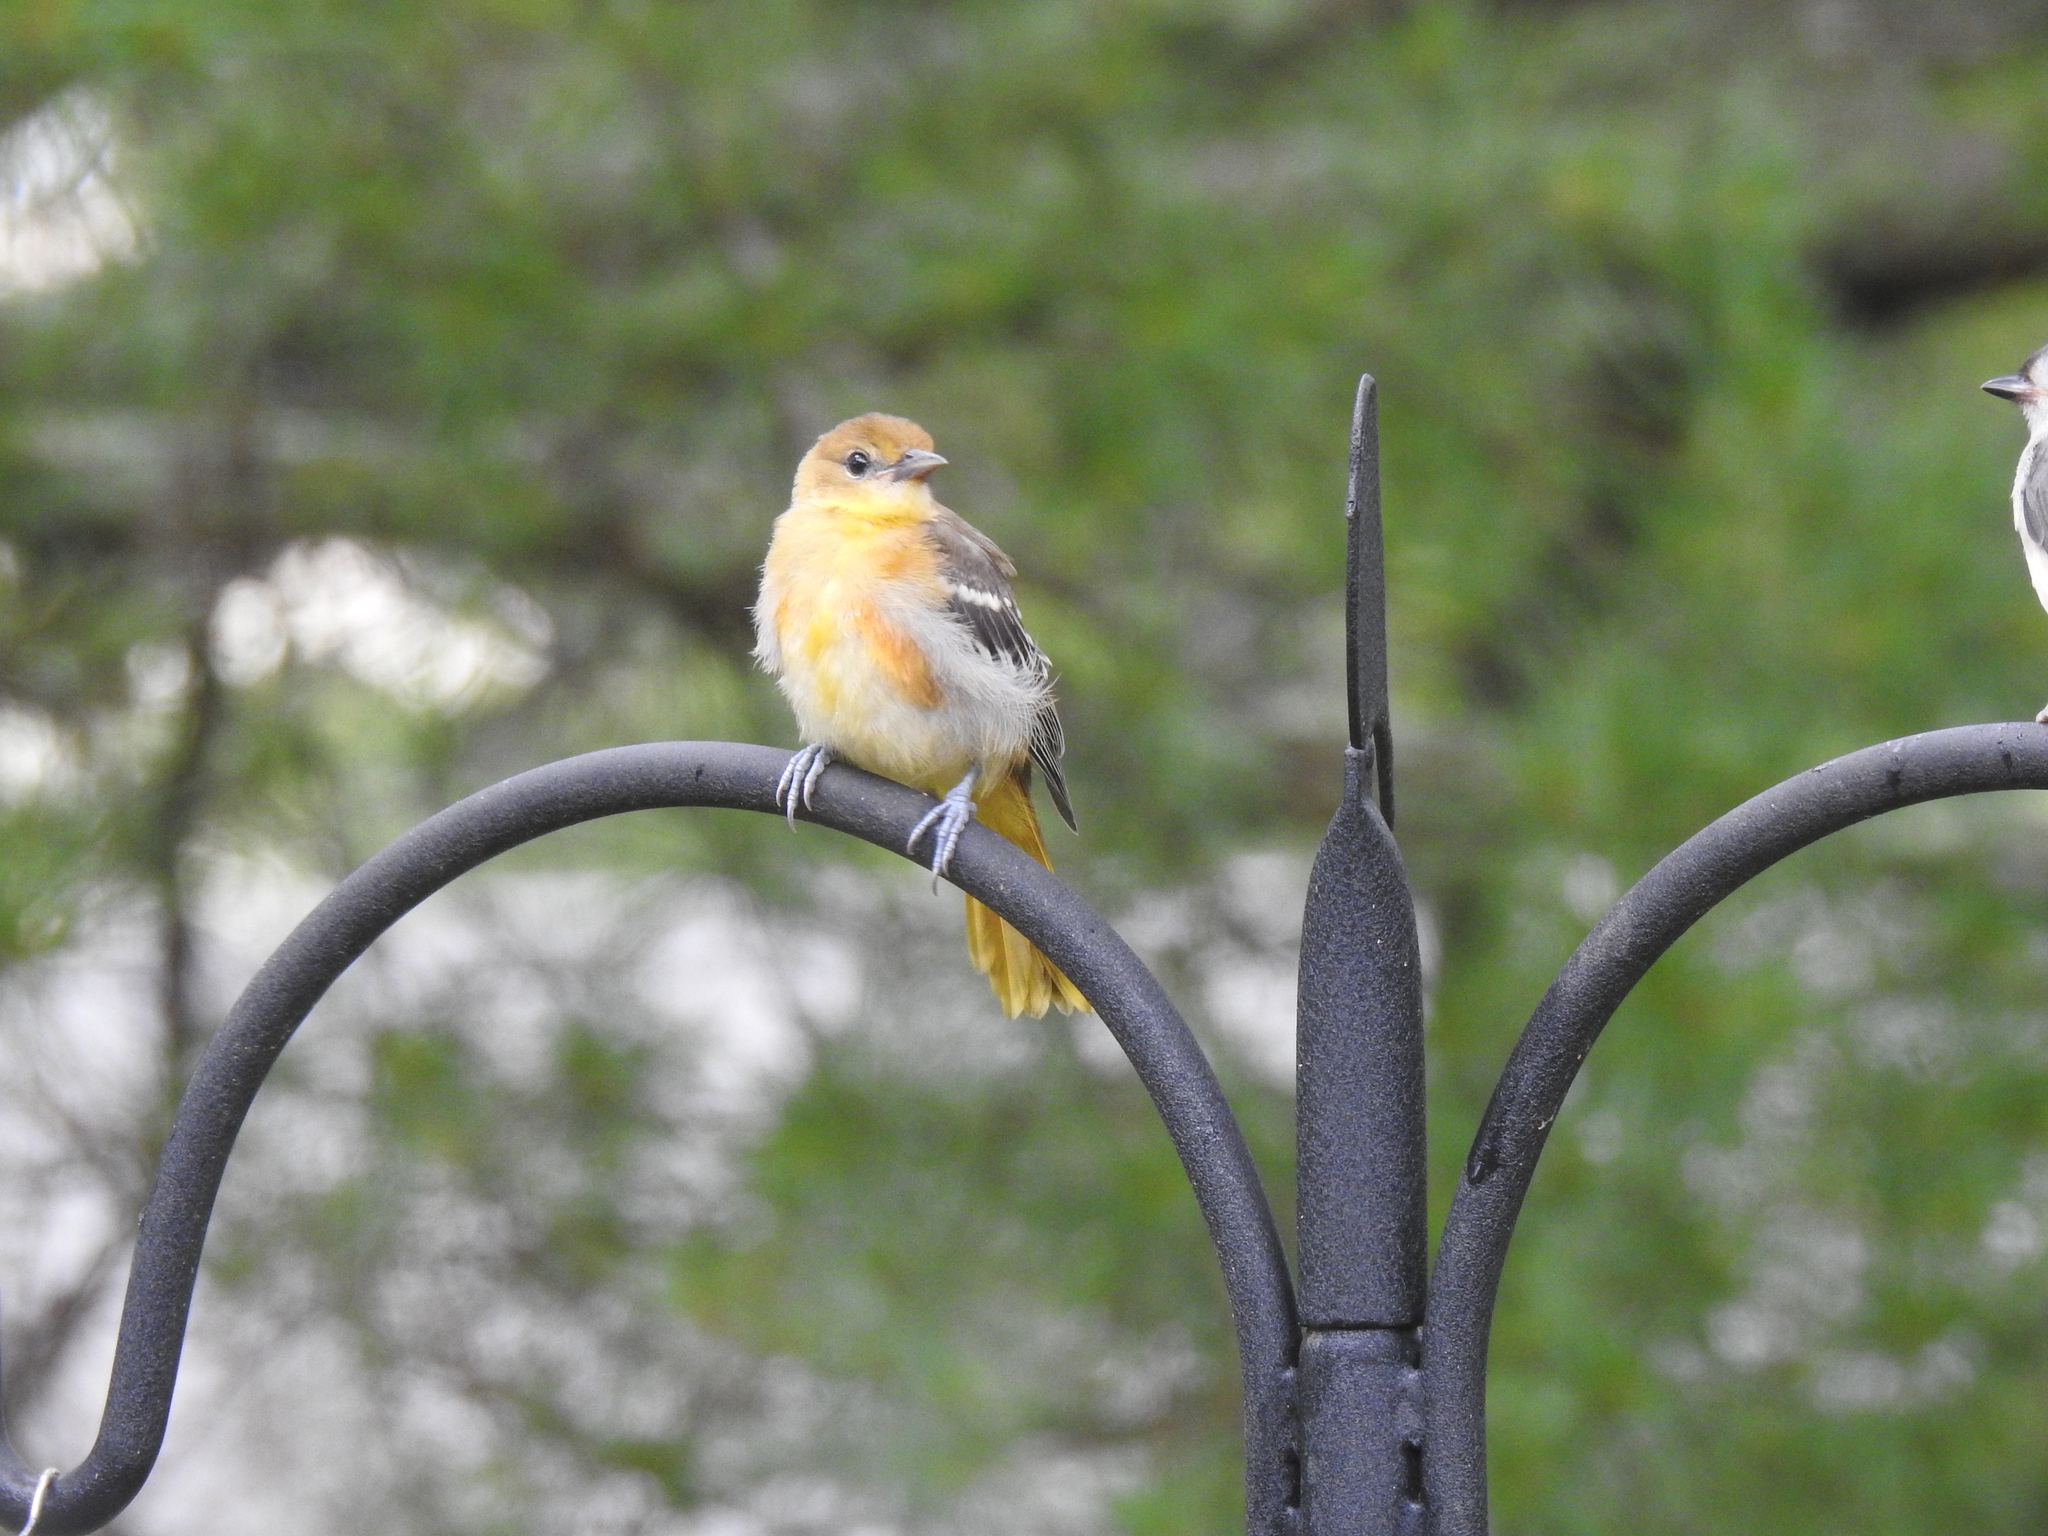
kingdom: Animalia
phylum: Chordata
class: Aves
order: Passeriformes
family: Icteridae
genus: Icterus
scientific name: Icterus galbula
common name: Baltimore oriole
